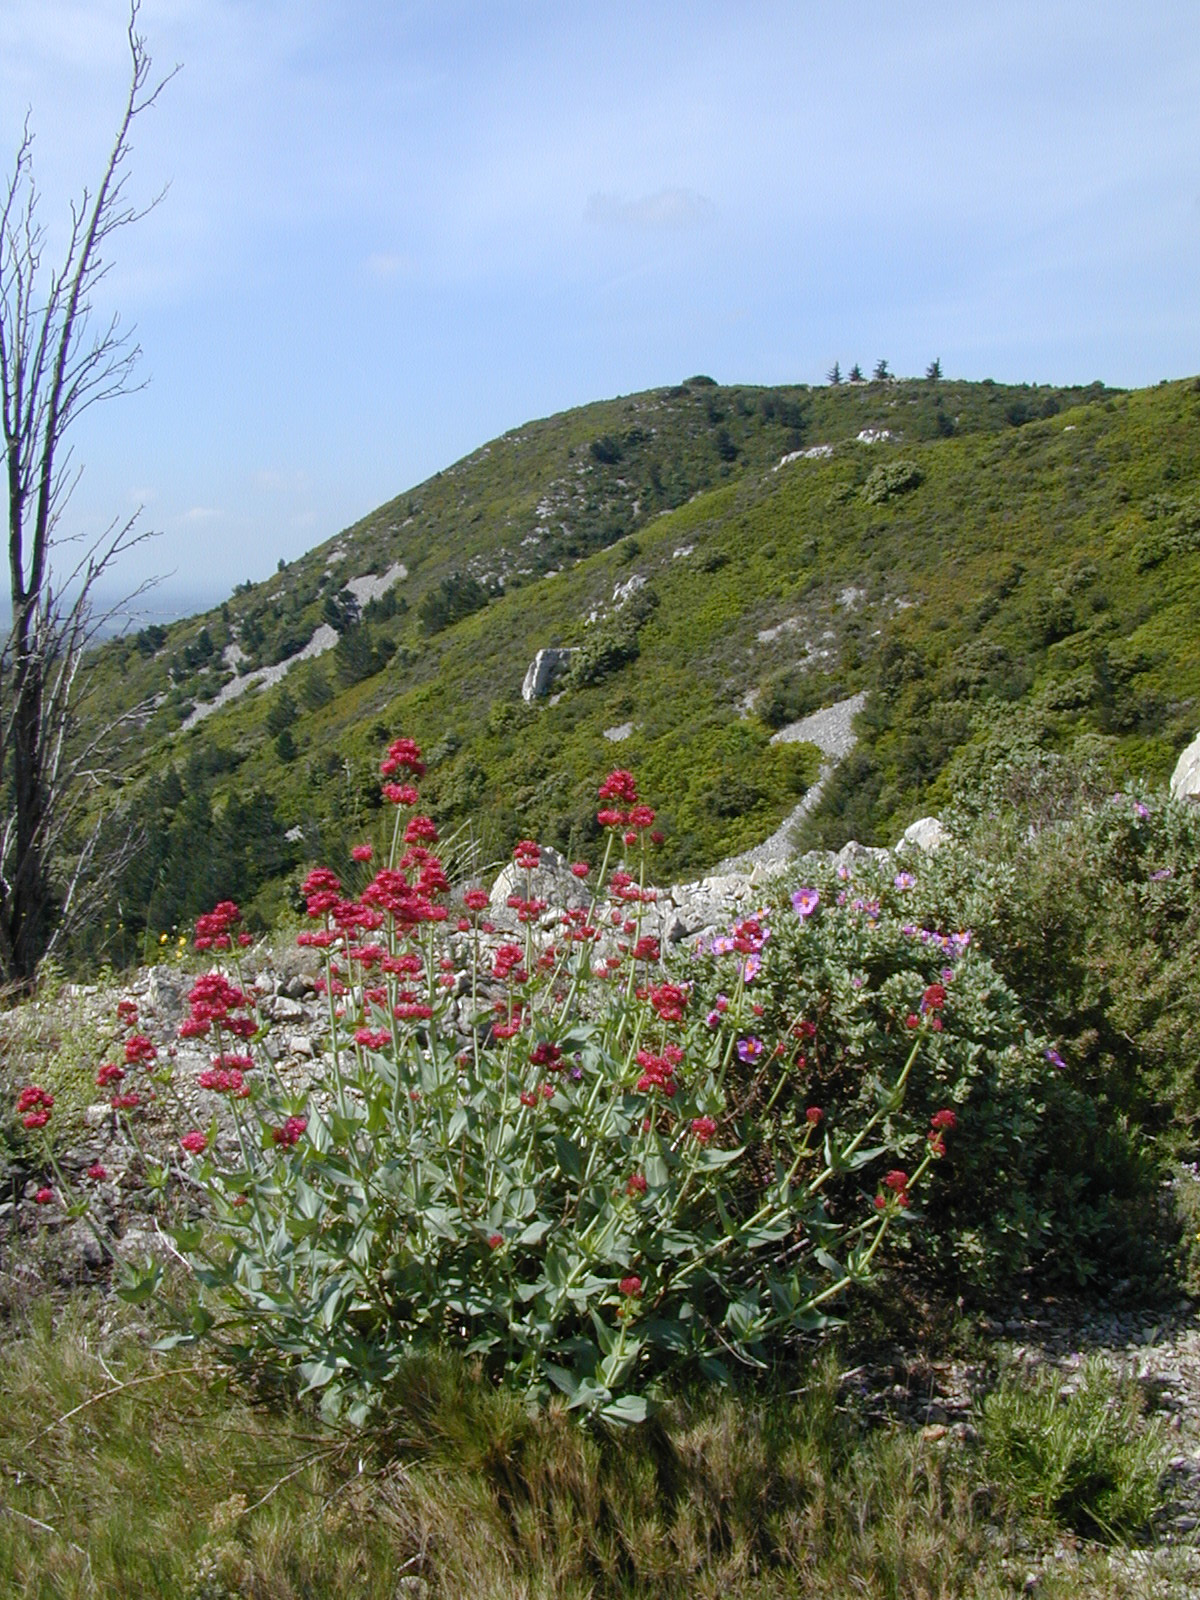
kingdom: Plantae
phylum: Tracheophyta
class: Magnoliopsida
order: Dipsacales
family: Caprifoliaceae
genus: Centranthus
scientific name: Centranthus ruber
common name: Red valerian
